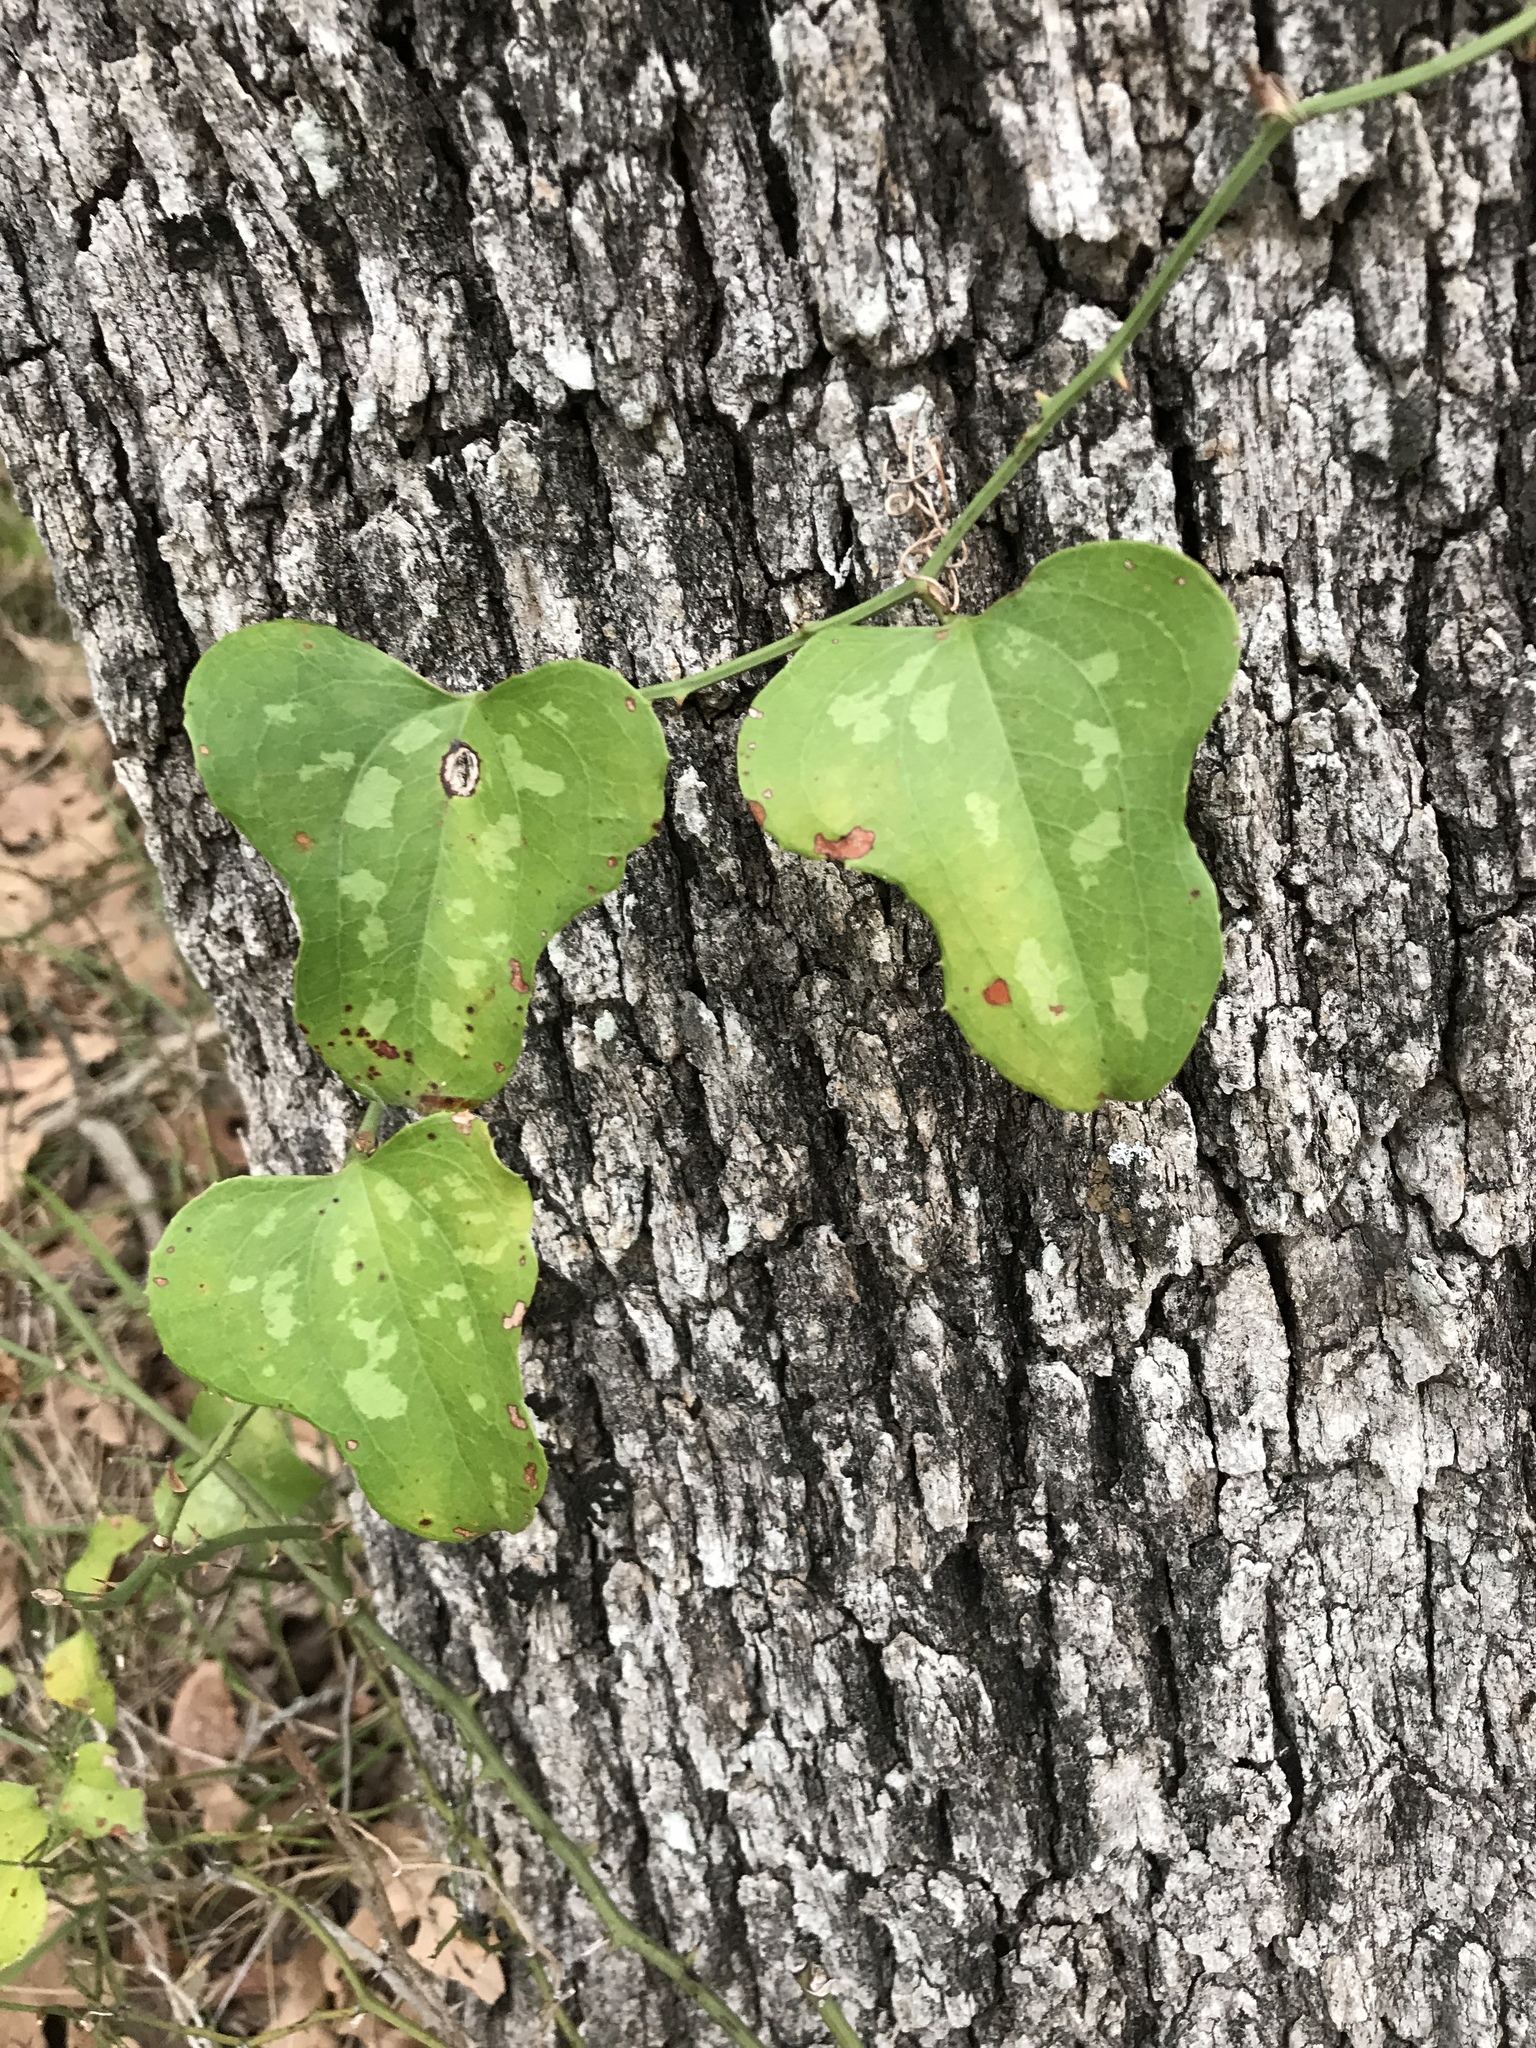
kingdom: Plantae
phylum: Tracheophyta
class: Liliopsida
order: Liliales
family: Smilacaceae
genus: Smilax
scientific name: Smilax bona-nox
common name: Catbrier
